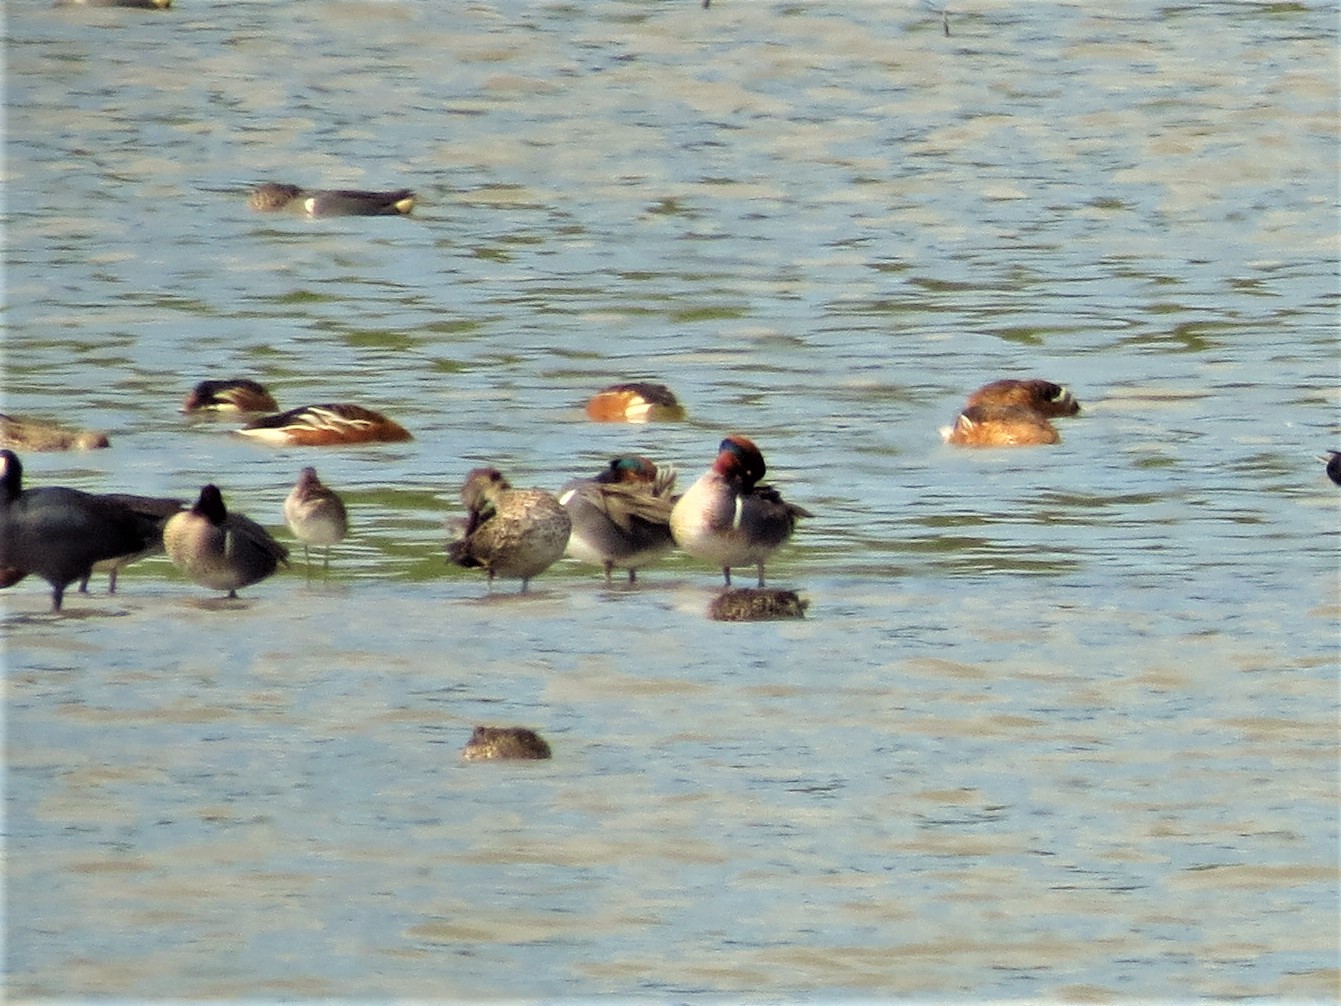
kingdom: Animalia
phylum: Chordata
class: Aves
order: Anseriformes
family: Anatidae
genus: Anas
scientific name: Anas crecca
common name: Eurasian teal
